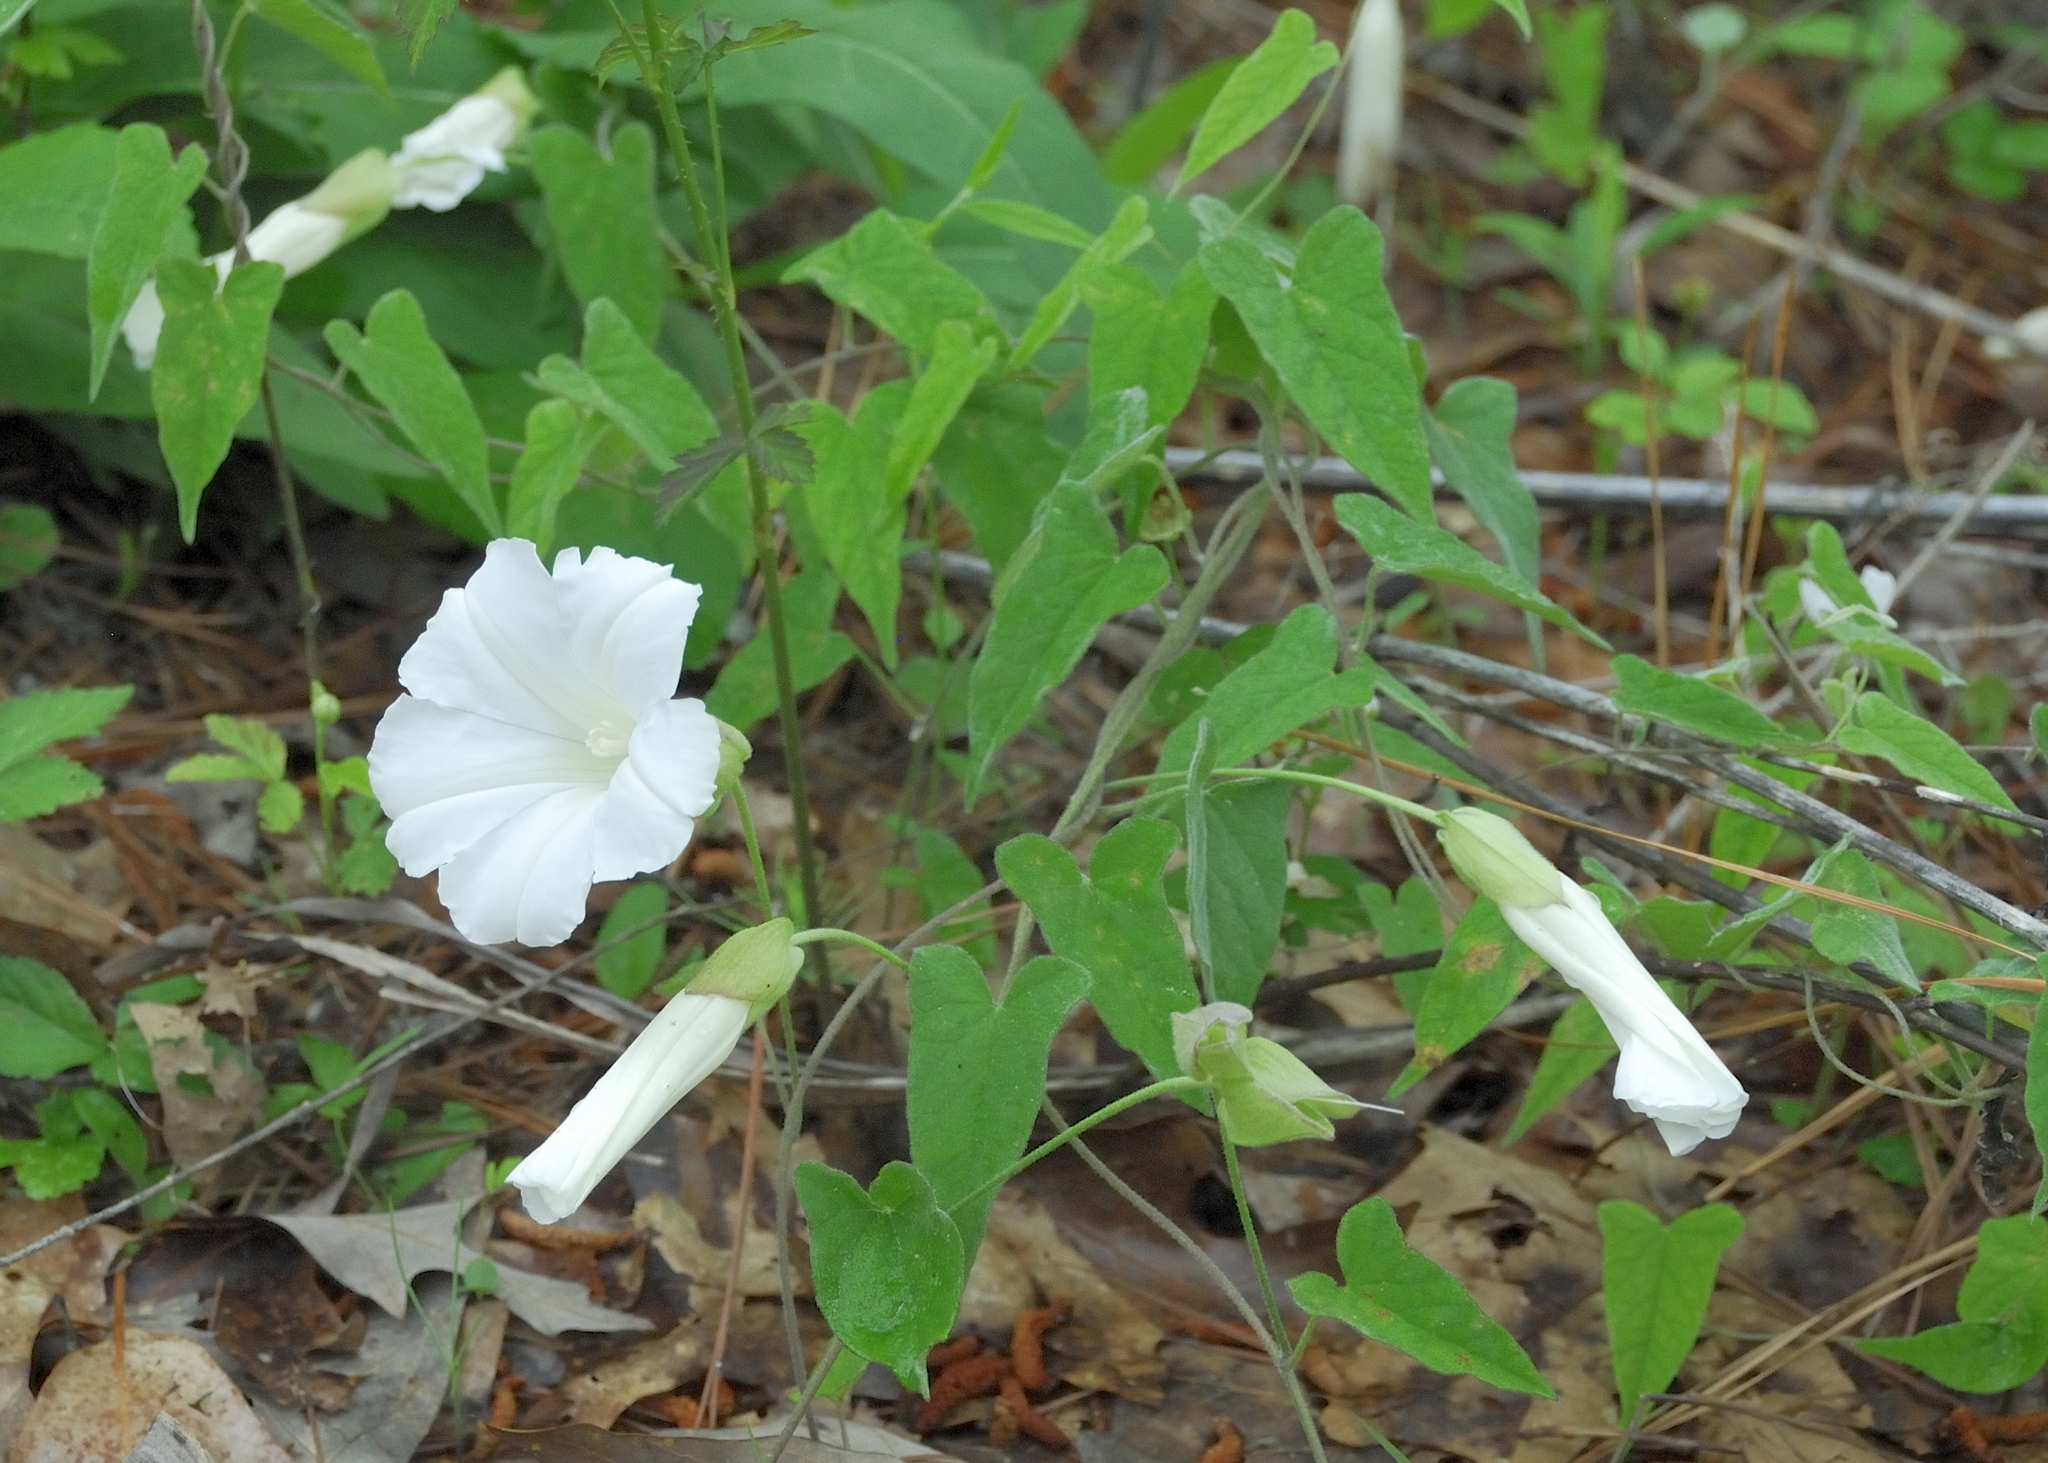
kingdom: Plantae
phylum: Tracheophyta
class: Magnoliopsida
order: Solanales
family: Convolvulaceae
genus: Calystegia
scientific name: Calystegia catesbeiana
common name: Catesby's false bindweed
